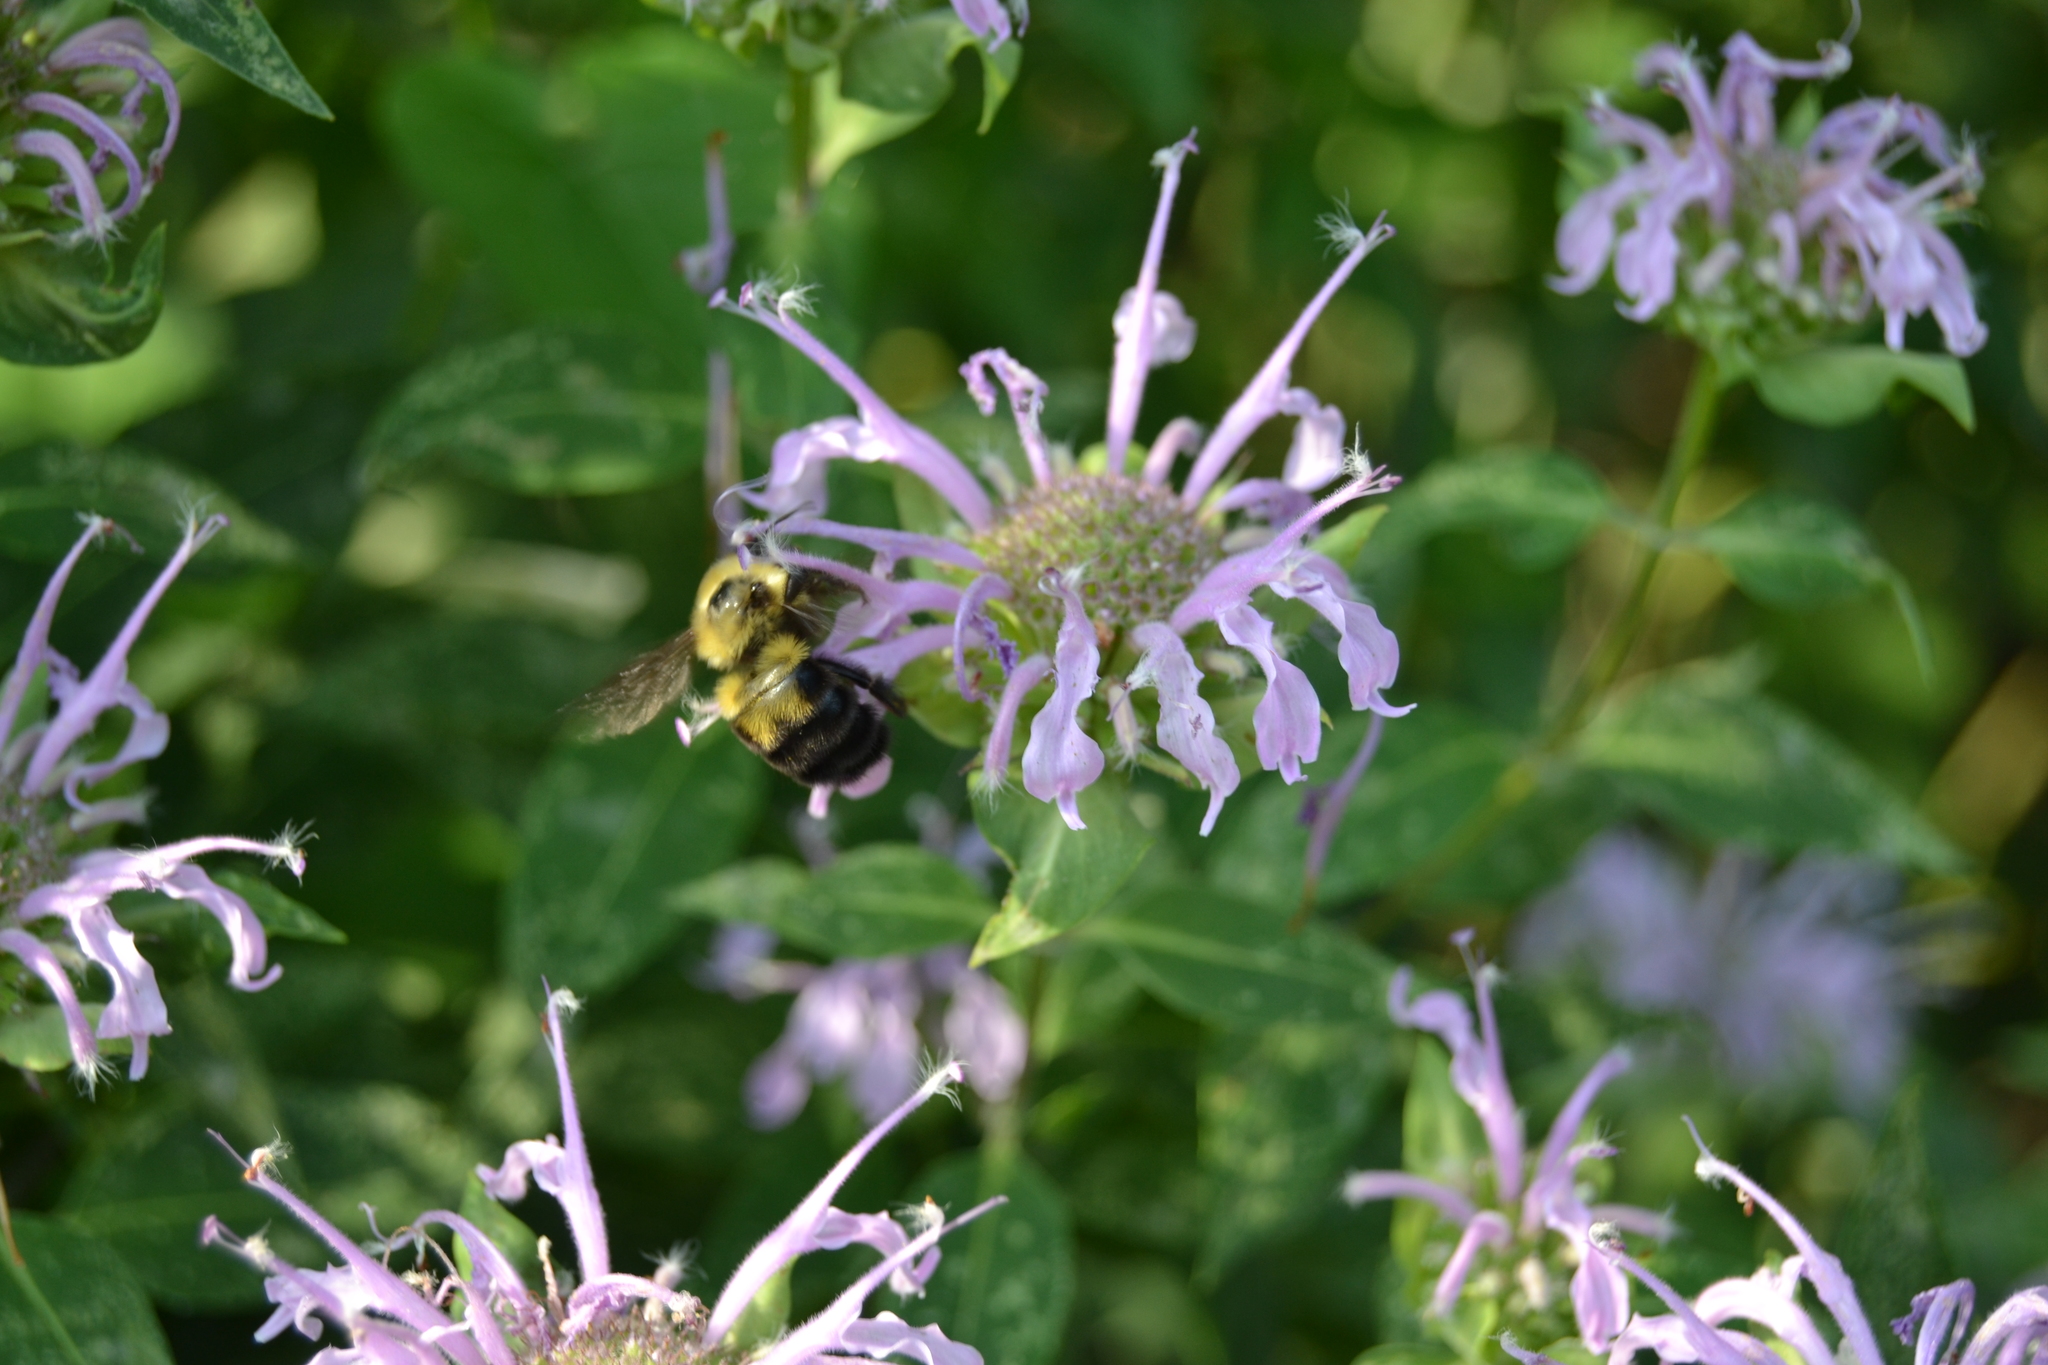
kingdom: Animalia
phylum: Arthropoda
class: Insecta
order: Hymenoptera
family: Apidae
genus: Bombus
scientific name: Bombus bimaculatus
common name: Two-spotted bumble bee
